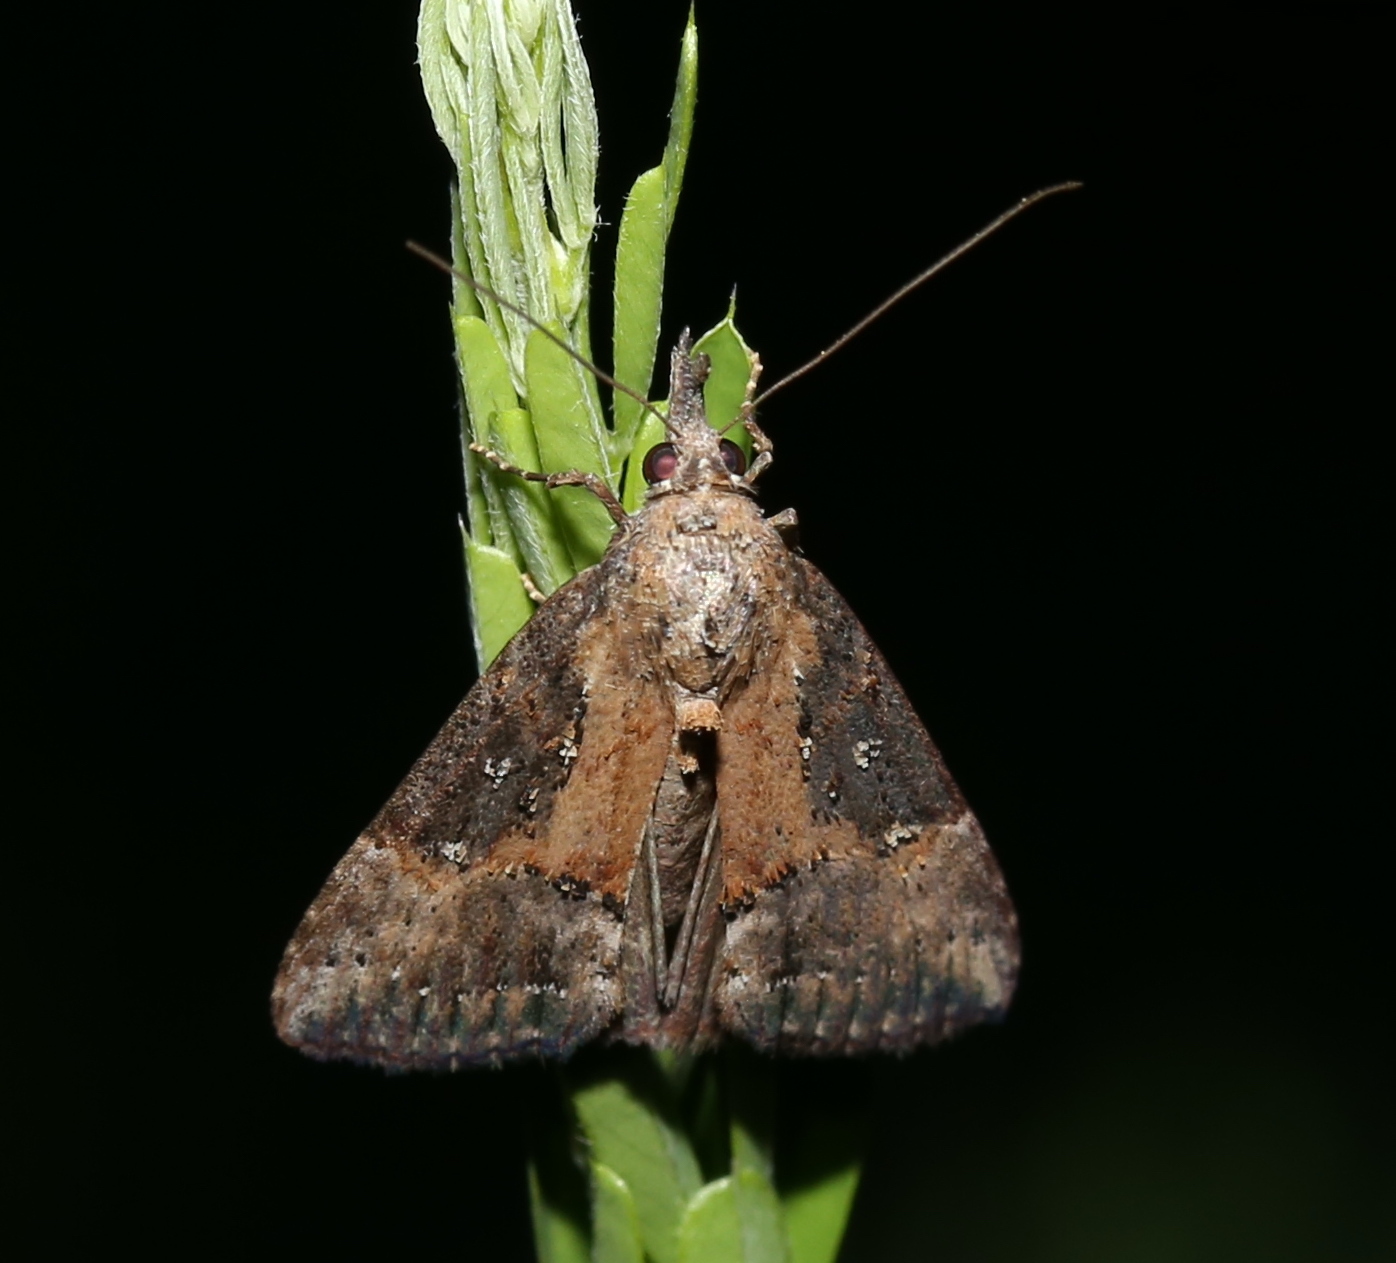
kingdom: Animalia
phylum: Arthropoda
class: Insecta
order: Lepidoptera
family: Erebidae
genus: Hypena
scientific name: Hypena scabra
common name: Green cloverworm
